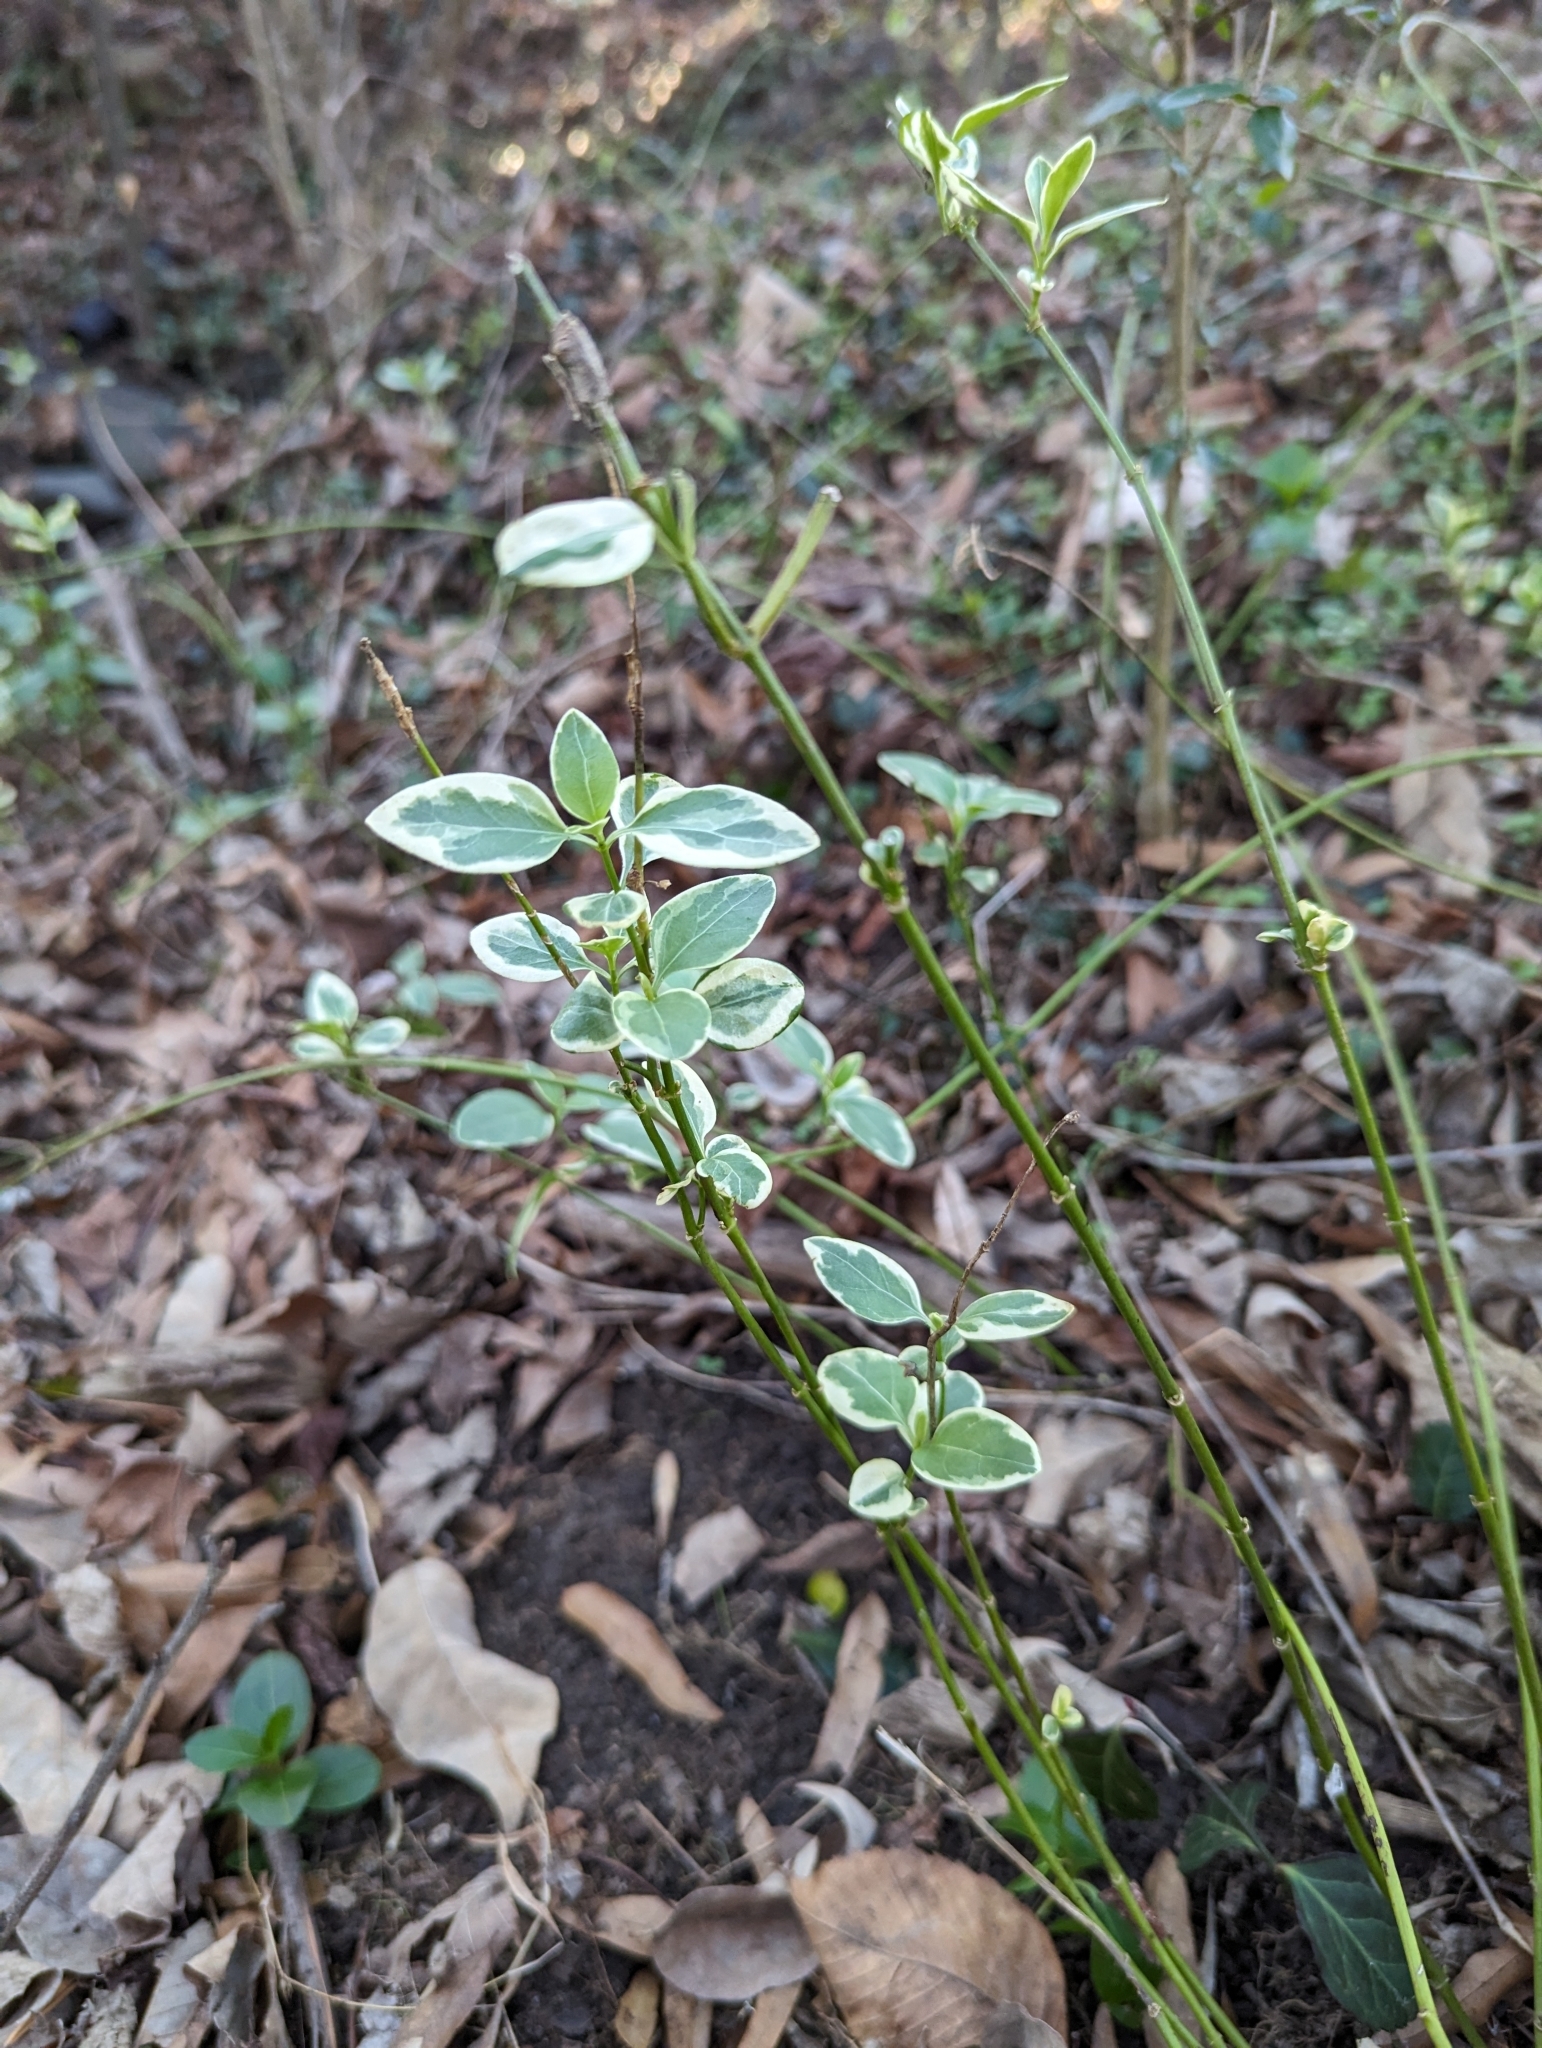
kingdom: Plantae
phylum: Tracheophyta
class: Magnoliopsida
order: Gentianales
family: Apocynaceae
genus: Vinca
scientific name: Vinca major
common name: Greater periwinkle
